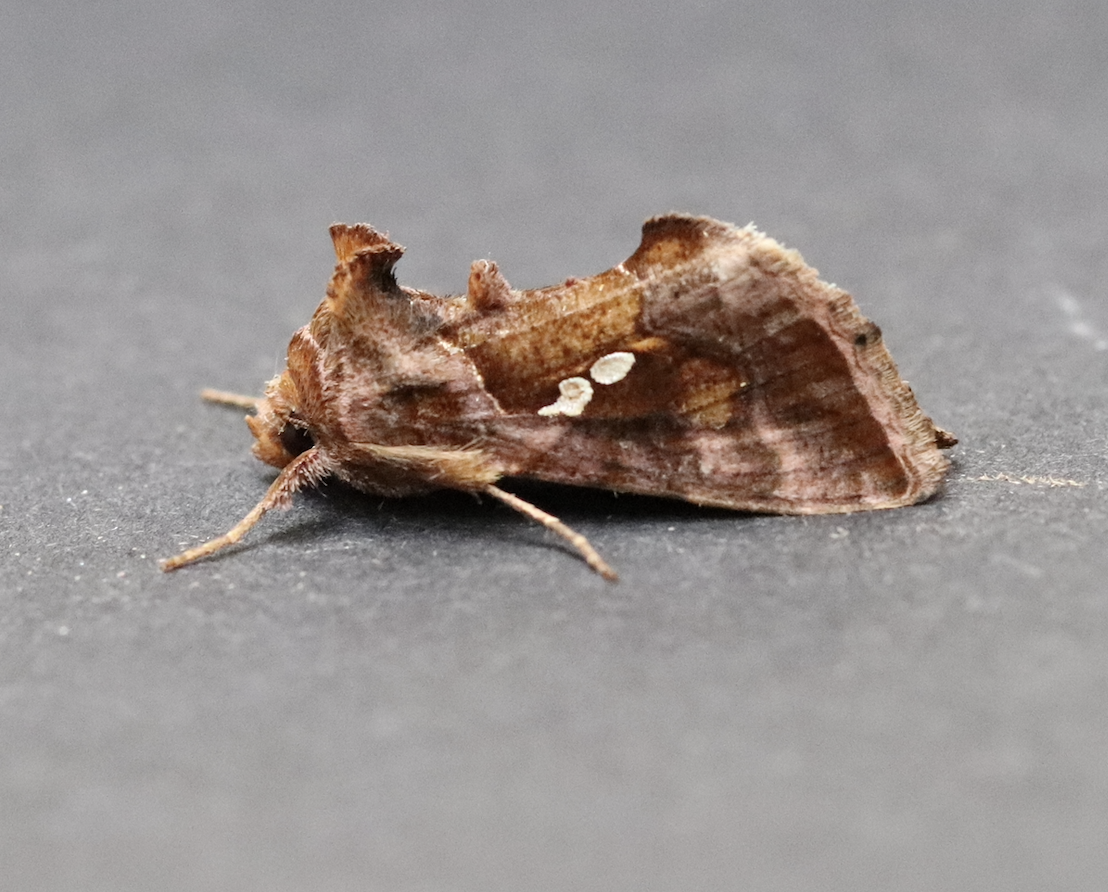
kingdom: Animalia
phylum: Arthropoda
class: Insecta
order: Lepidoptera
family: Noctuidae
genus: Chrysodeixis
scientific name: Chrysodeixis chalcites
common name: Golden twin-spot
